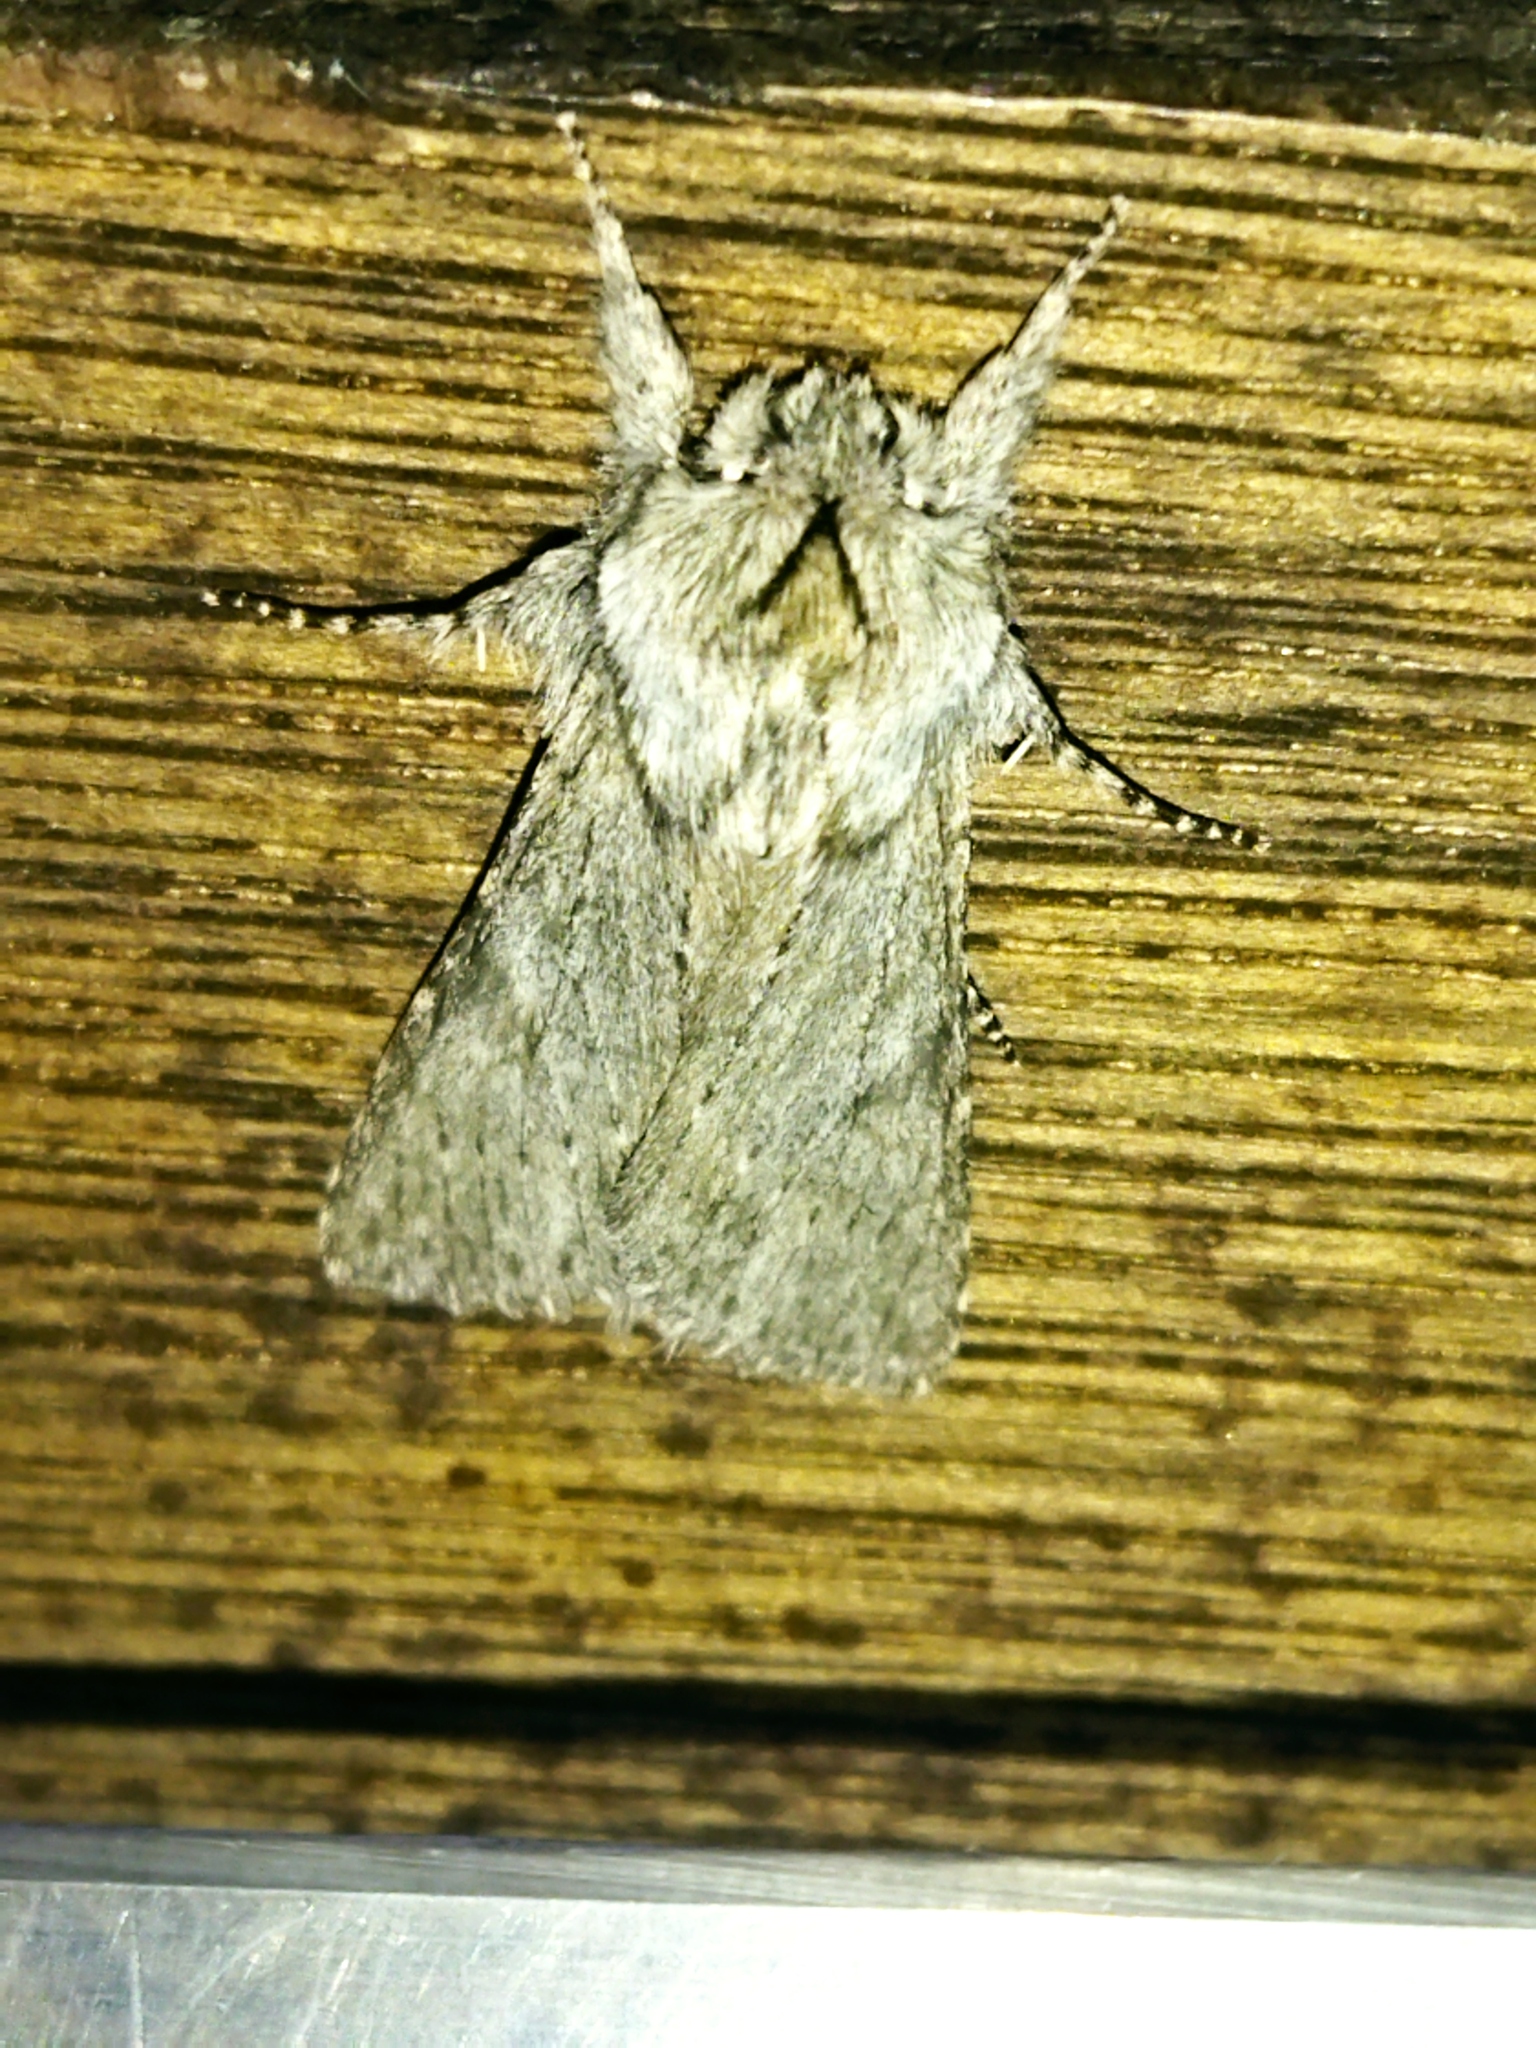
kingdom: Animalia
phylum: Arthropoda
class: Insecta
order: Lepidoptera
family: Notodontidae
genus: Dicranura
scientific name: Dicranura ulmi
